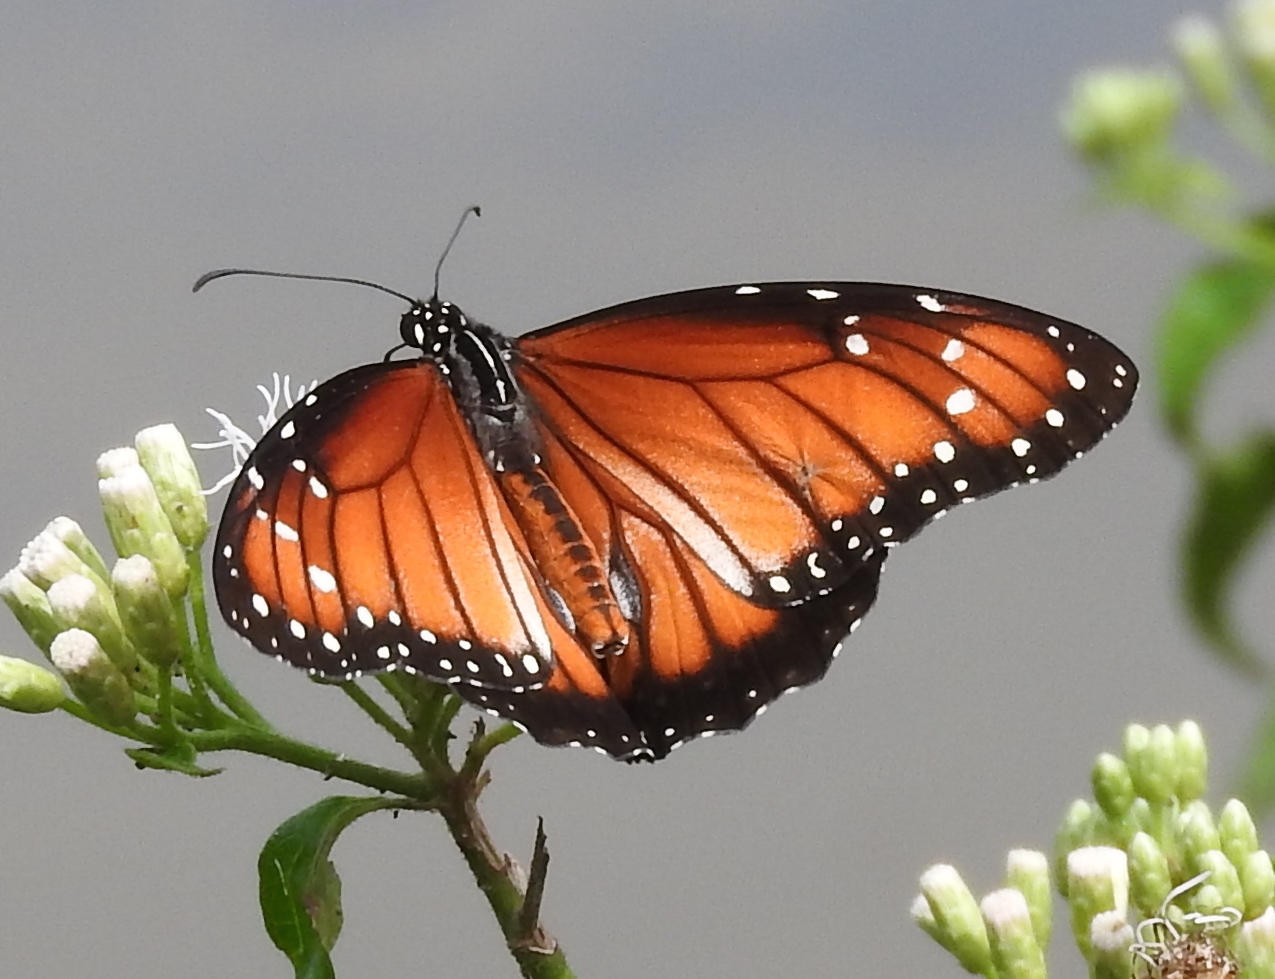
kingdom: Animalia
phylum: Arthropoda
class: Insecta
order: Lepidoptera
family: Nymphalidae
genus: Danaus
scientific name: Danaus eresimus
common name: Soldier
